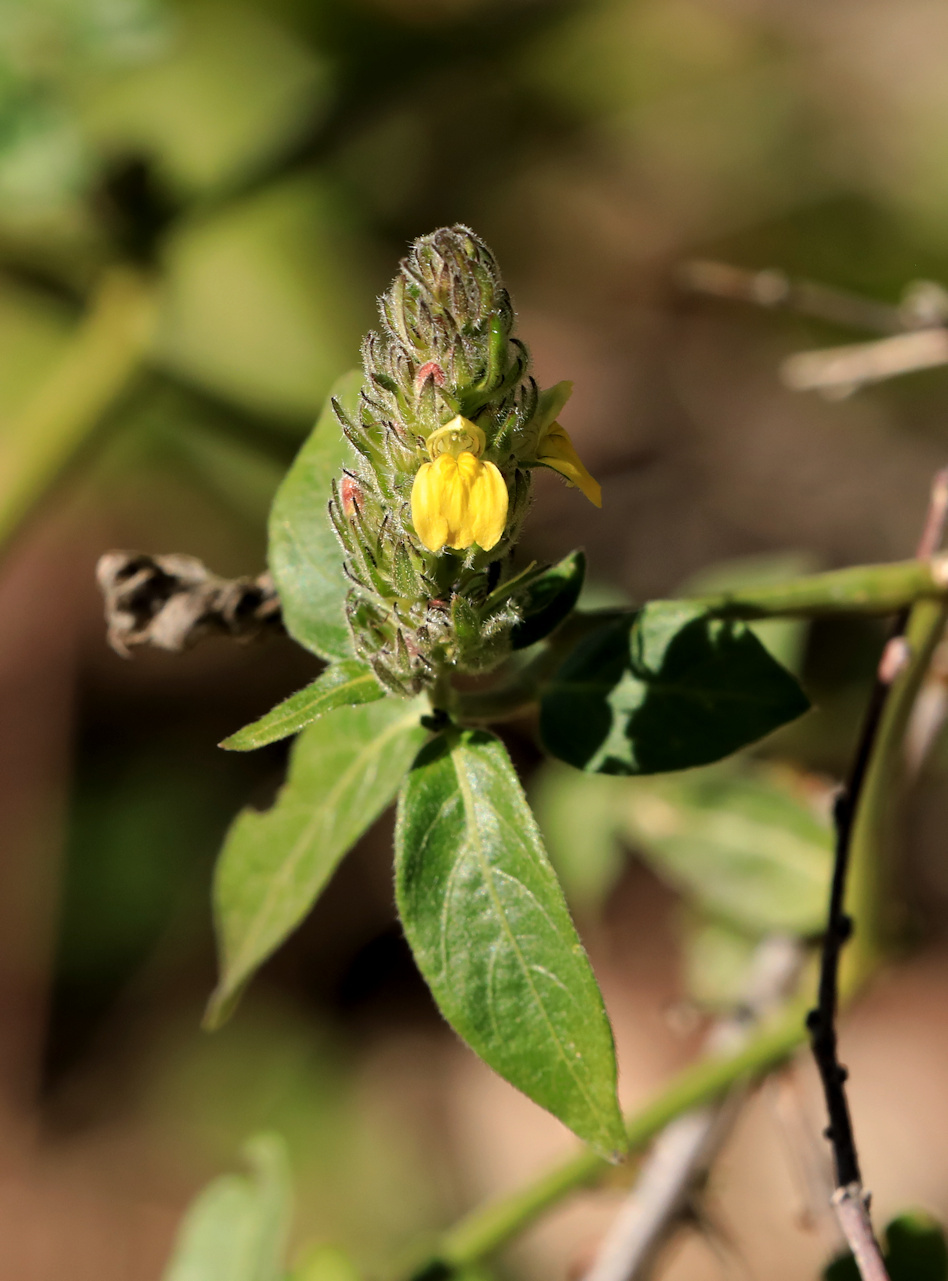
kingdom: Plantae
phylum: Tracheophyta
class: Magnoliopsida
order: Lamiales
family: Acanthaceae
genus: Justicia
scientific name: Justicia flava
